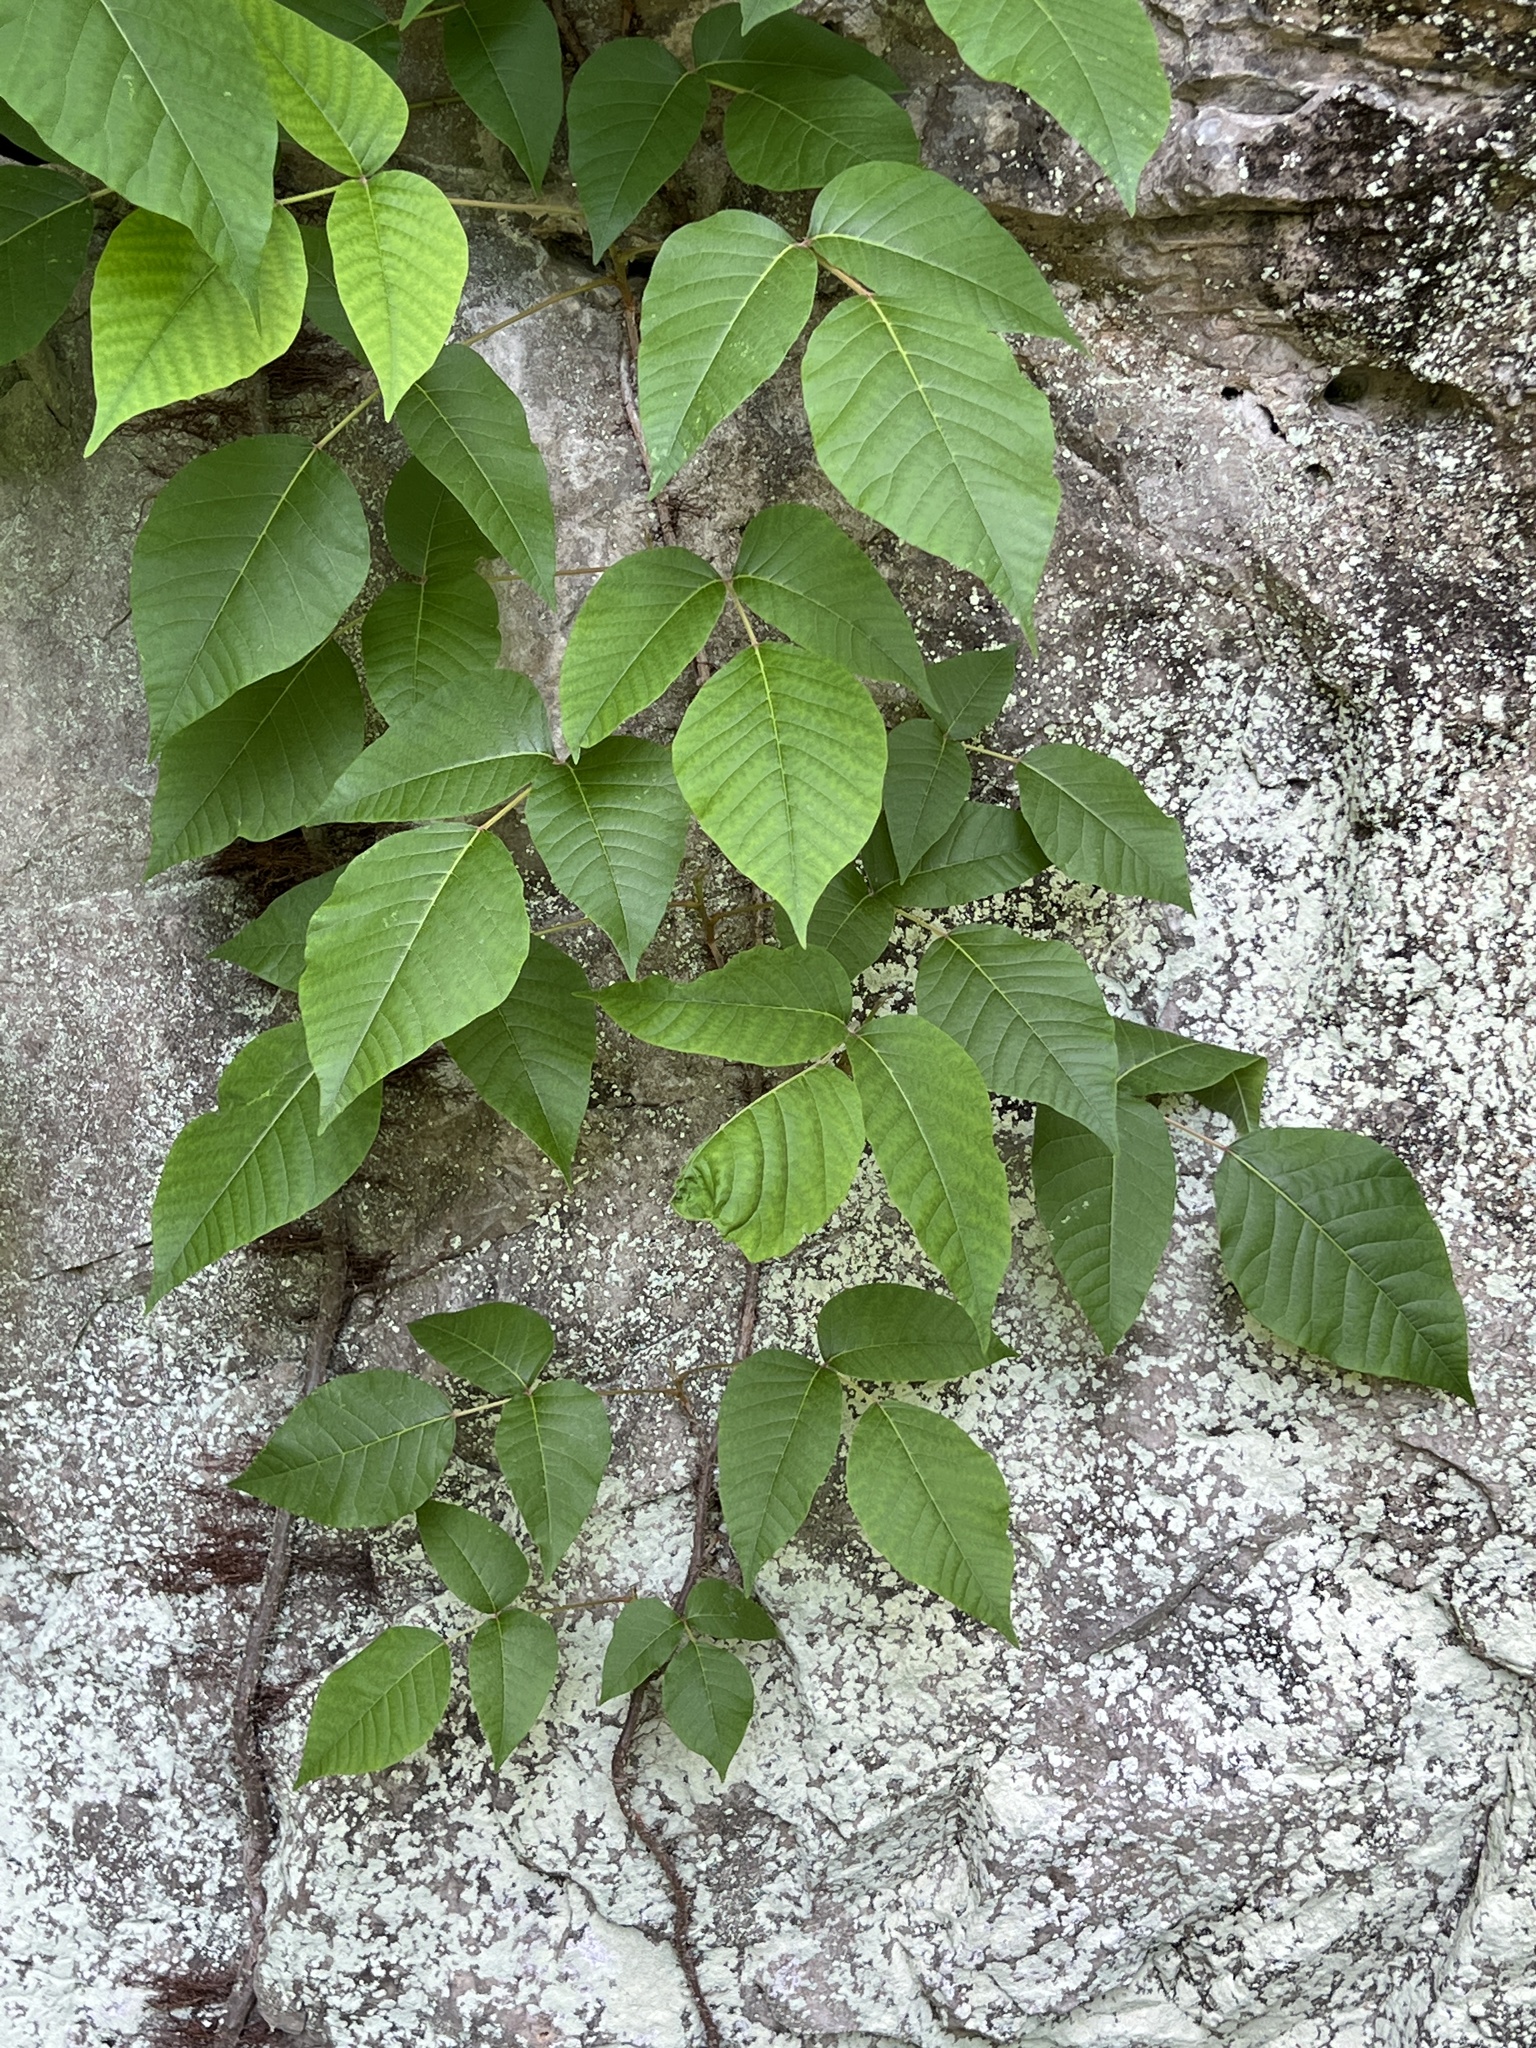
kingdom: Plantae
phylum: Tracheophyta
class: Magnoliopsida
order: Sapindales
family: Anacardiaceae
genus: Toxicodendron
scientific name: Toxicodendron radicans
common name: Poison ivy
